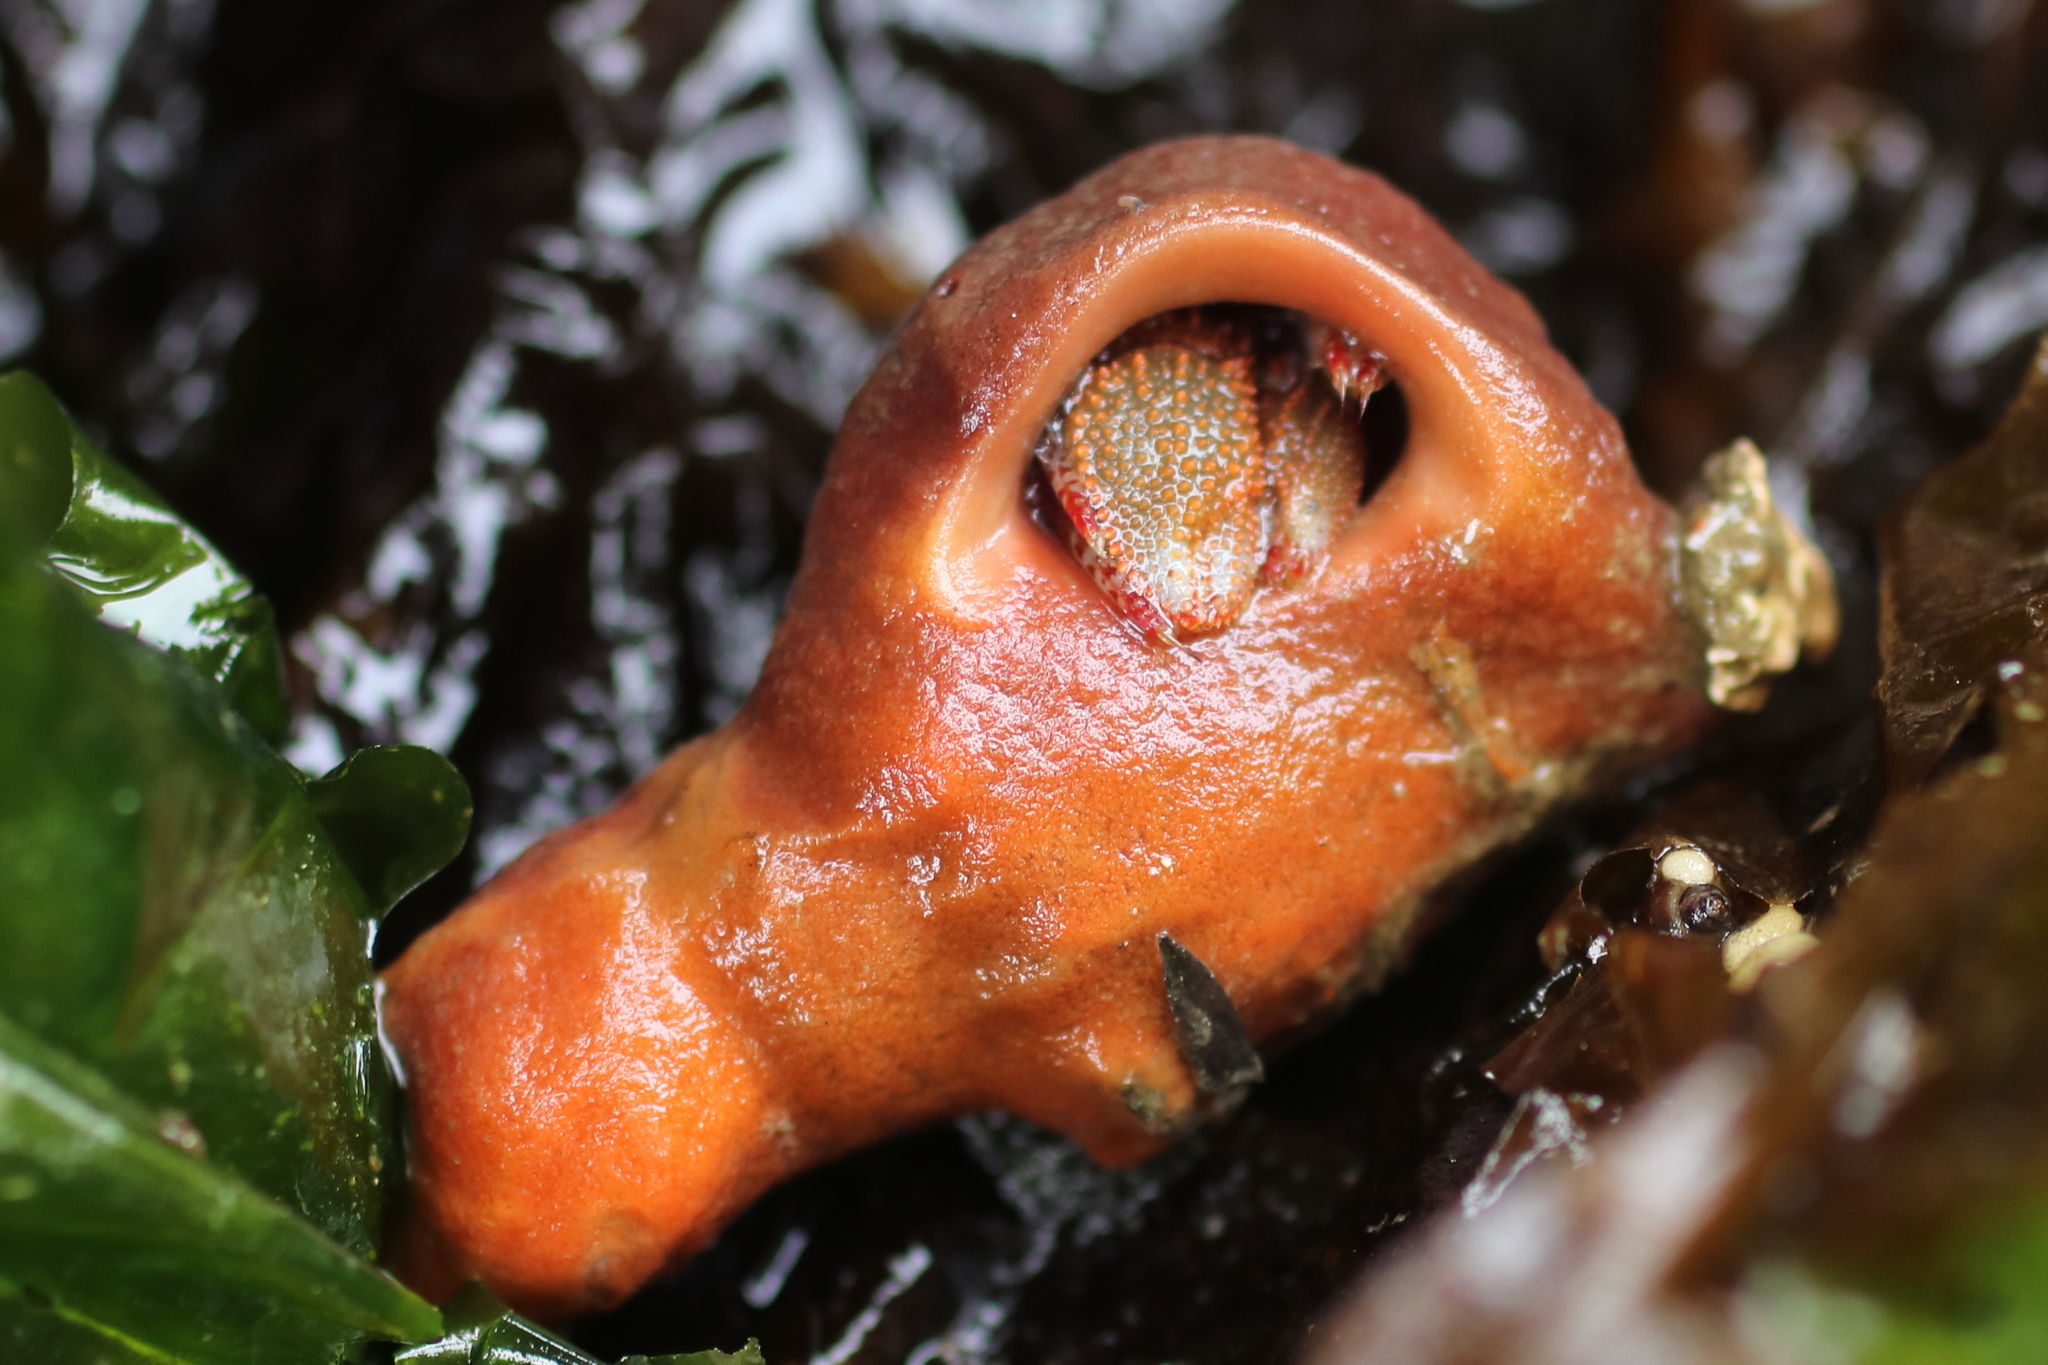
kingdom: Animalia
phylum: Porifera
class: Demospongiae
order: Suberitida
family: Suberitidae
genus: Suberites
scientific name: Suberites latus
